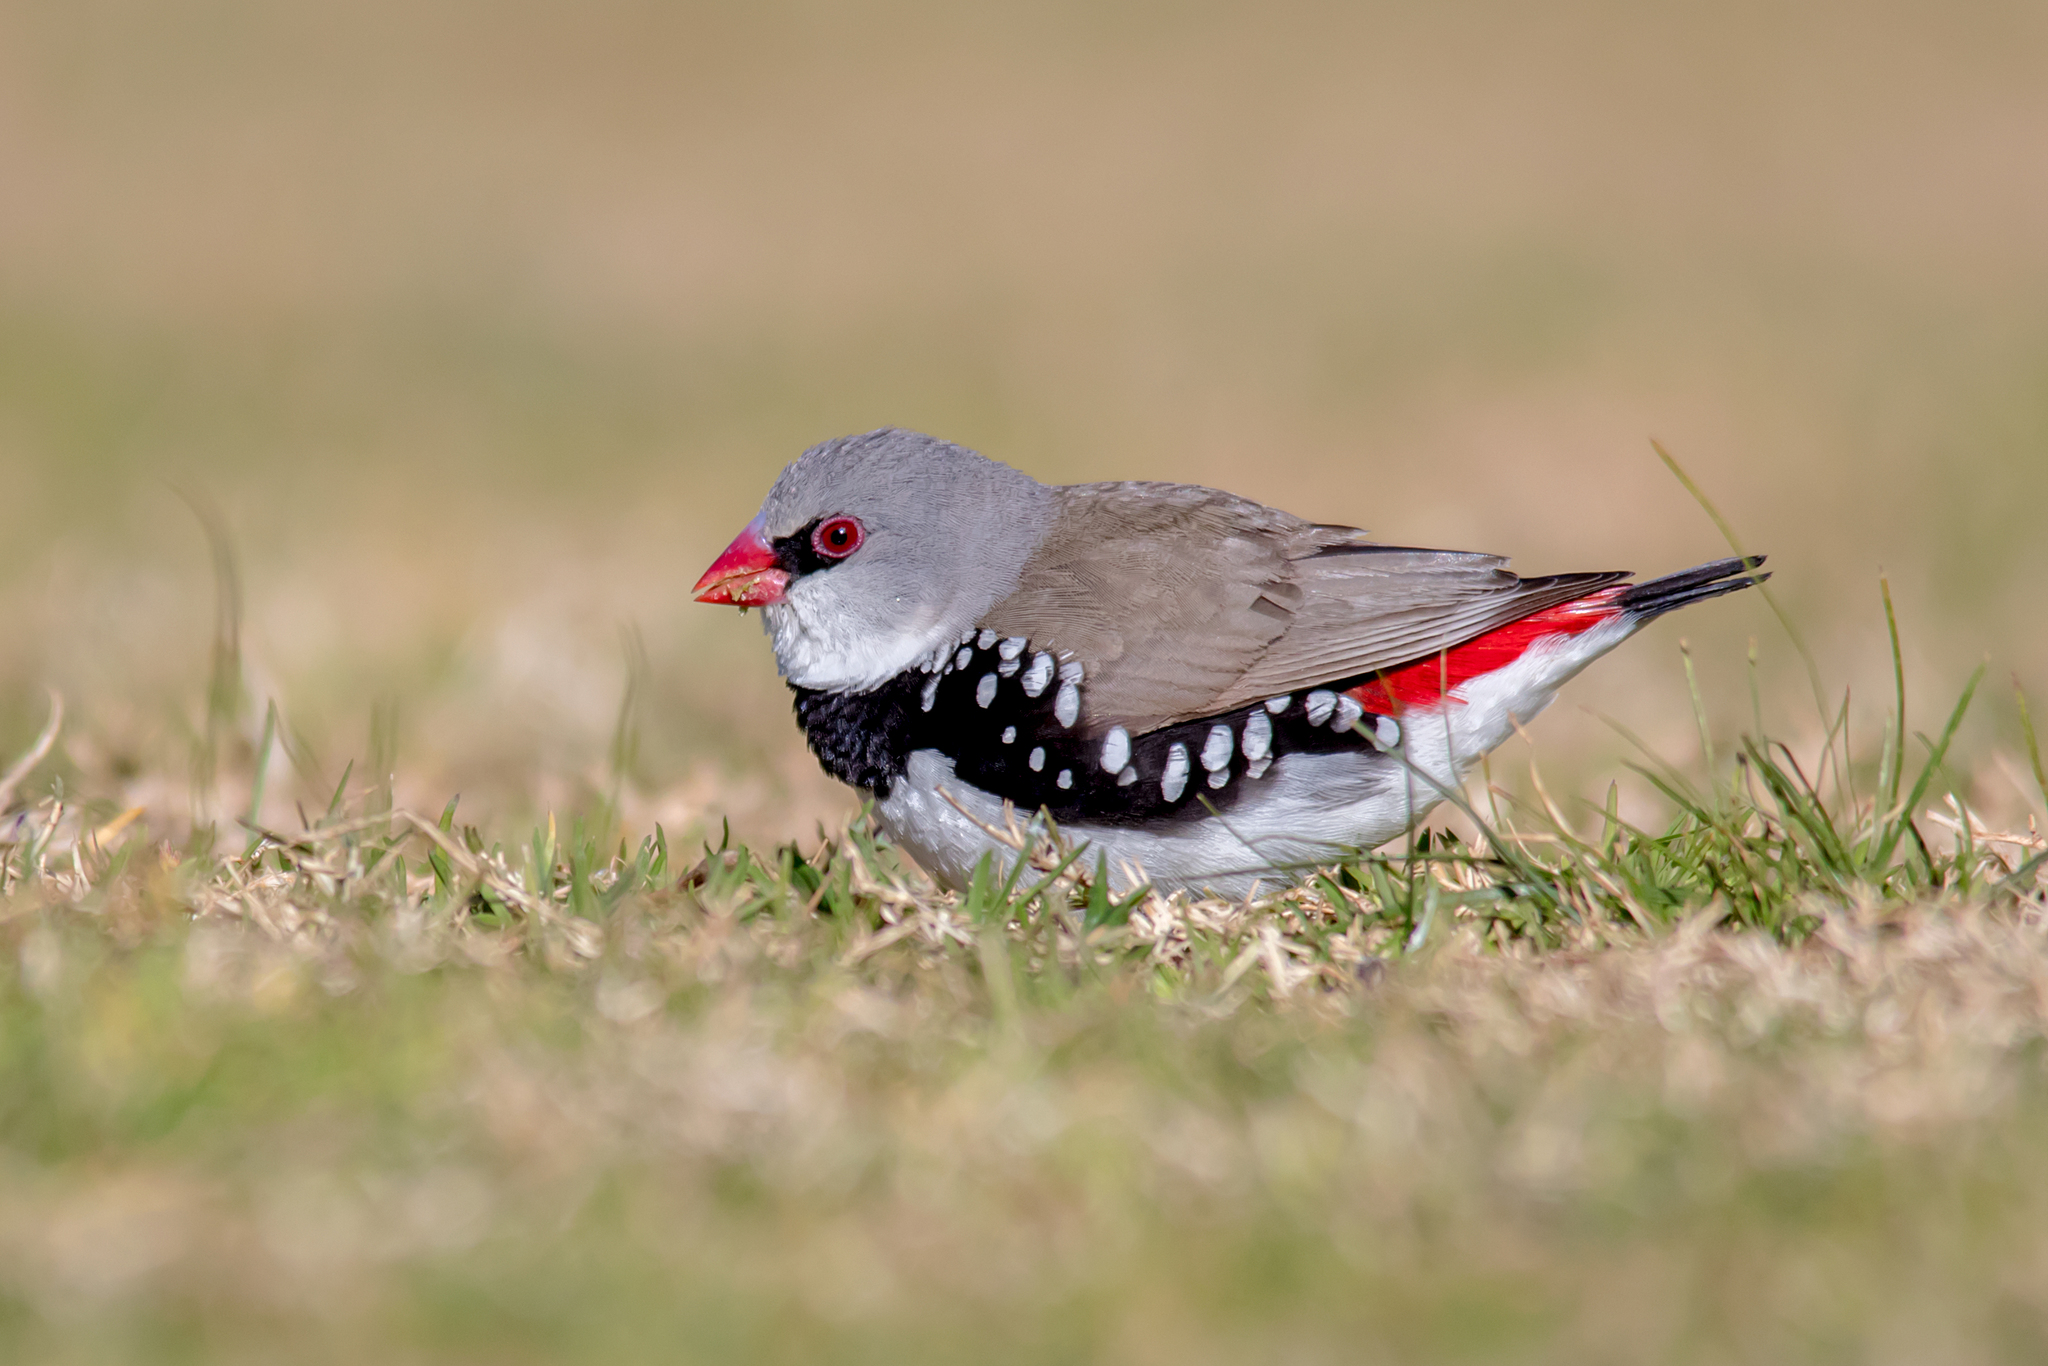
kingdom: Animalia
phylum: Chordata
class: Aves
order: Passeriformes
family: Estrildidae
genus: Stagonopleura
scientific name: Stagonopleura guttata
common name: Diamond firetail
